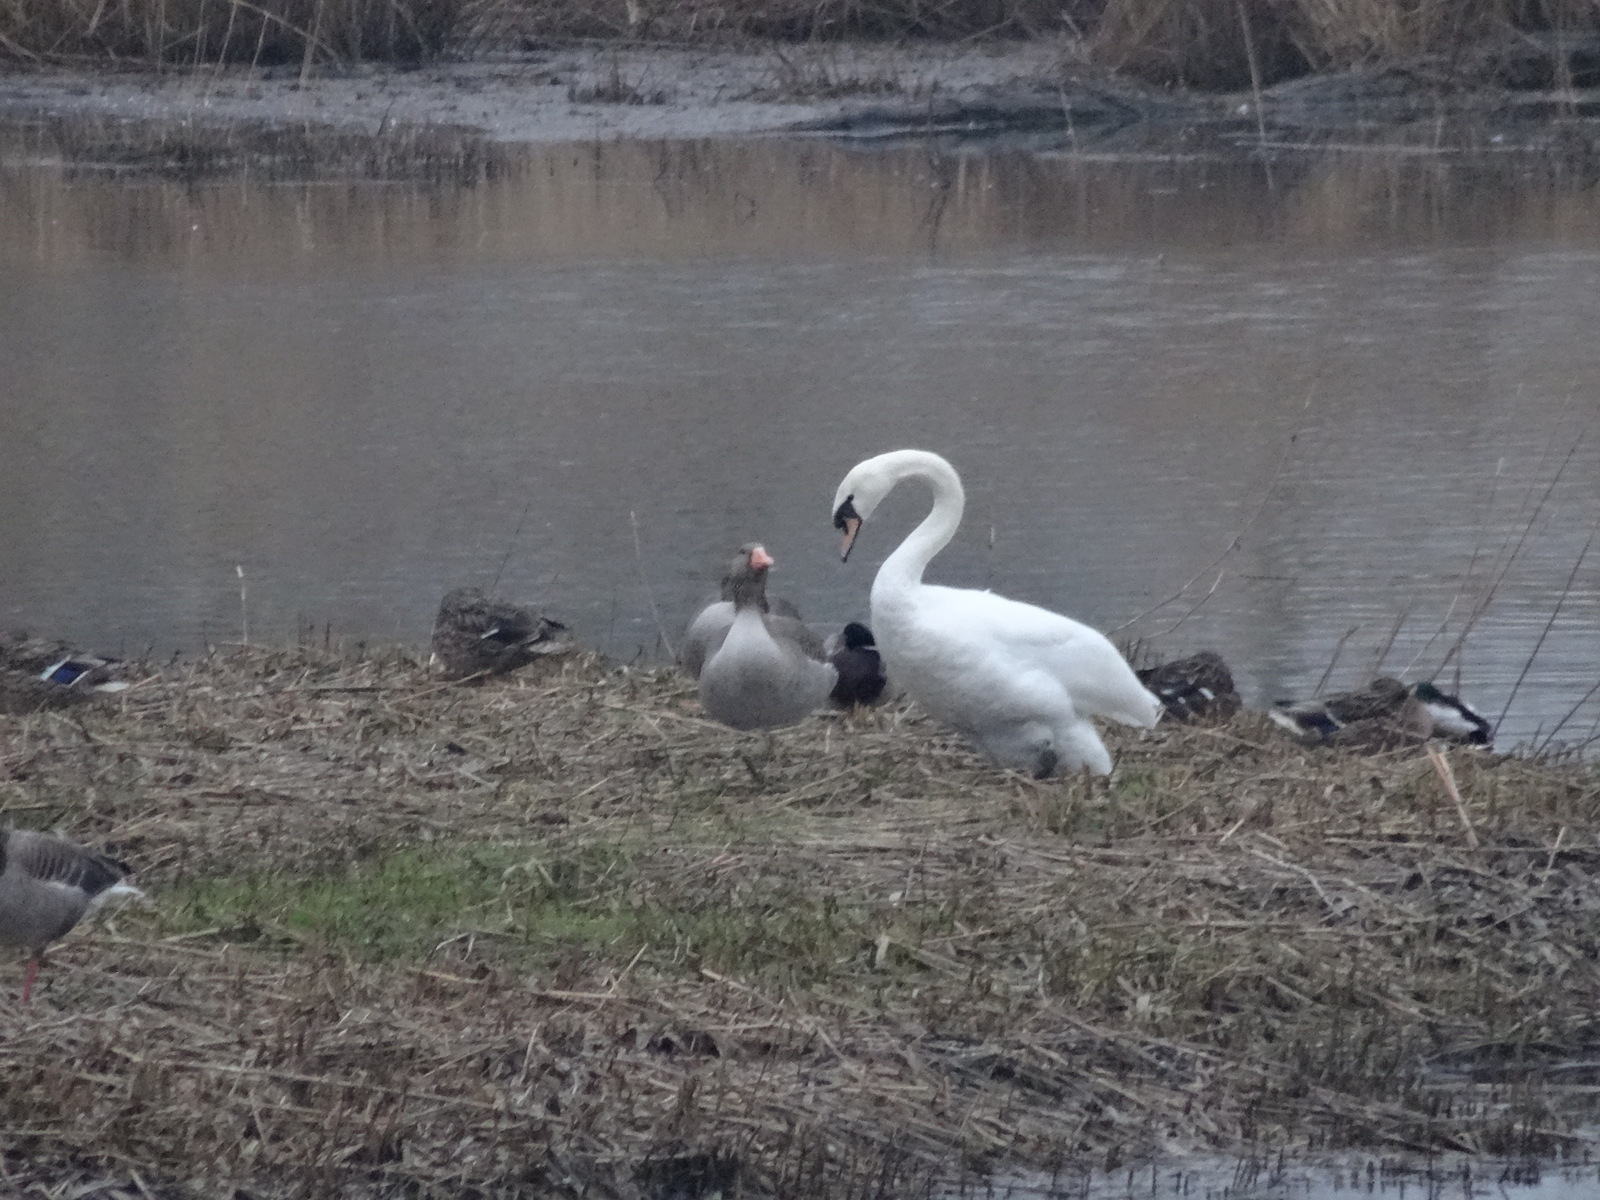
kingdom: Animalia
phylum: Chordata
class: Aves
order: Anseriformes
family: Anatidae
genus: Cygnus
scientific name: Cygnus olor
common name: Mute swan
